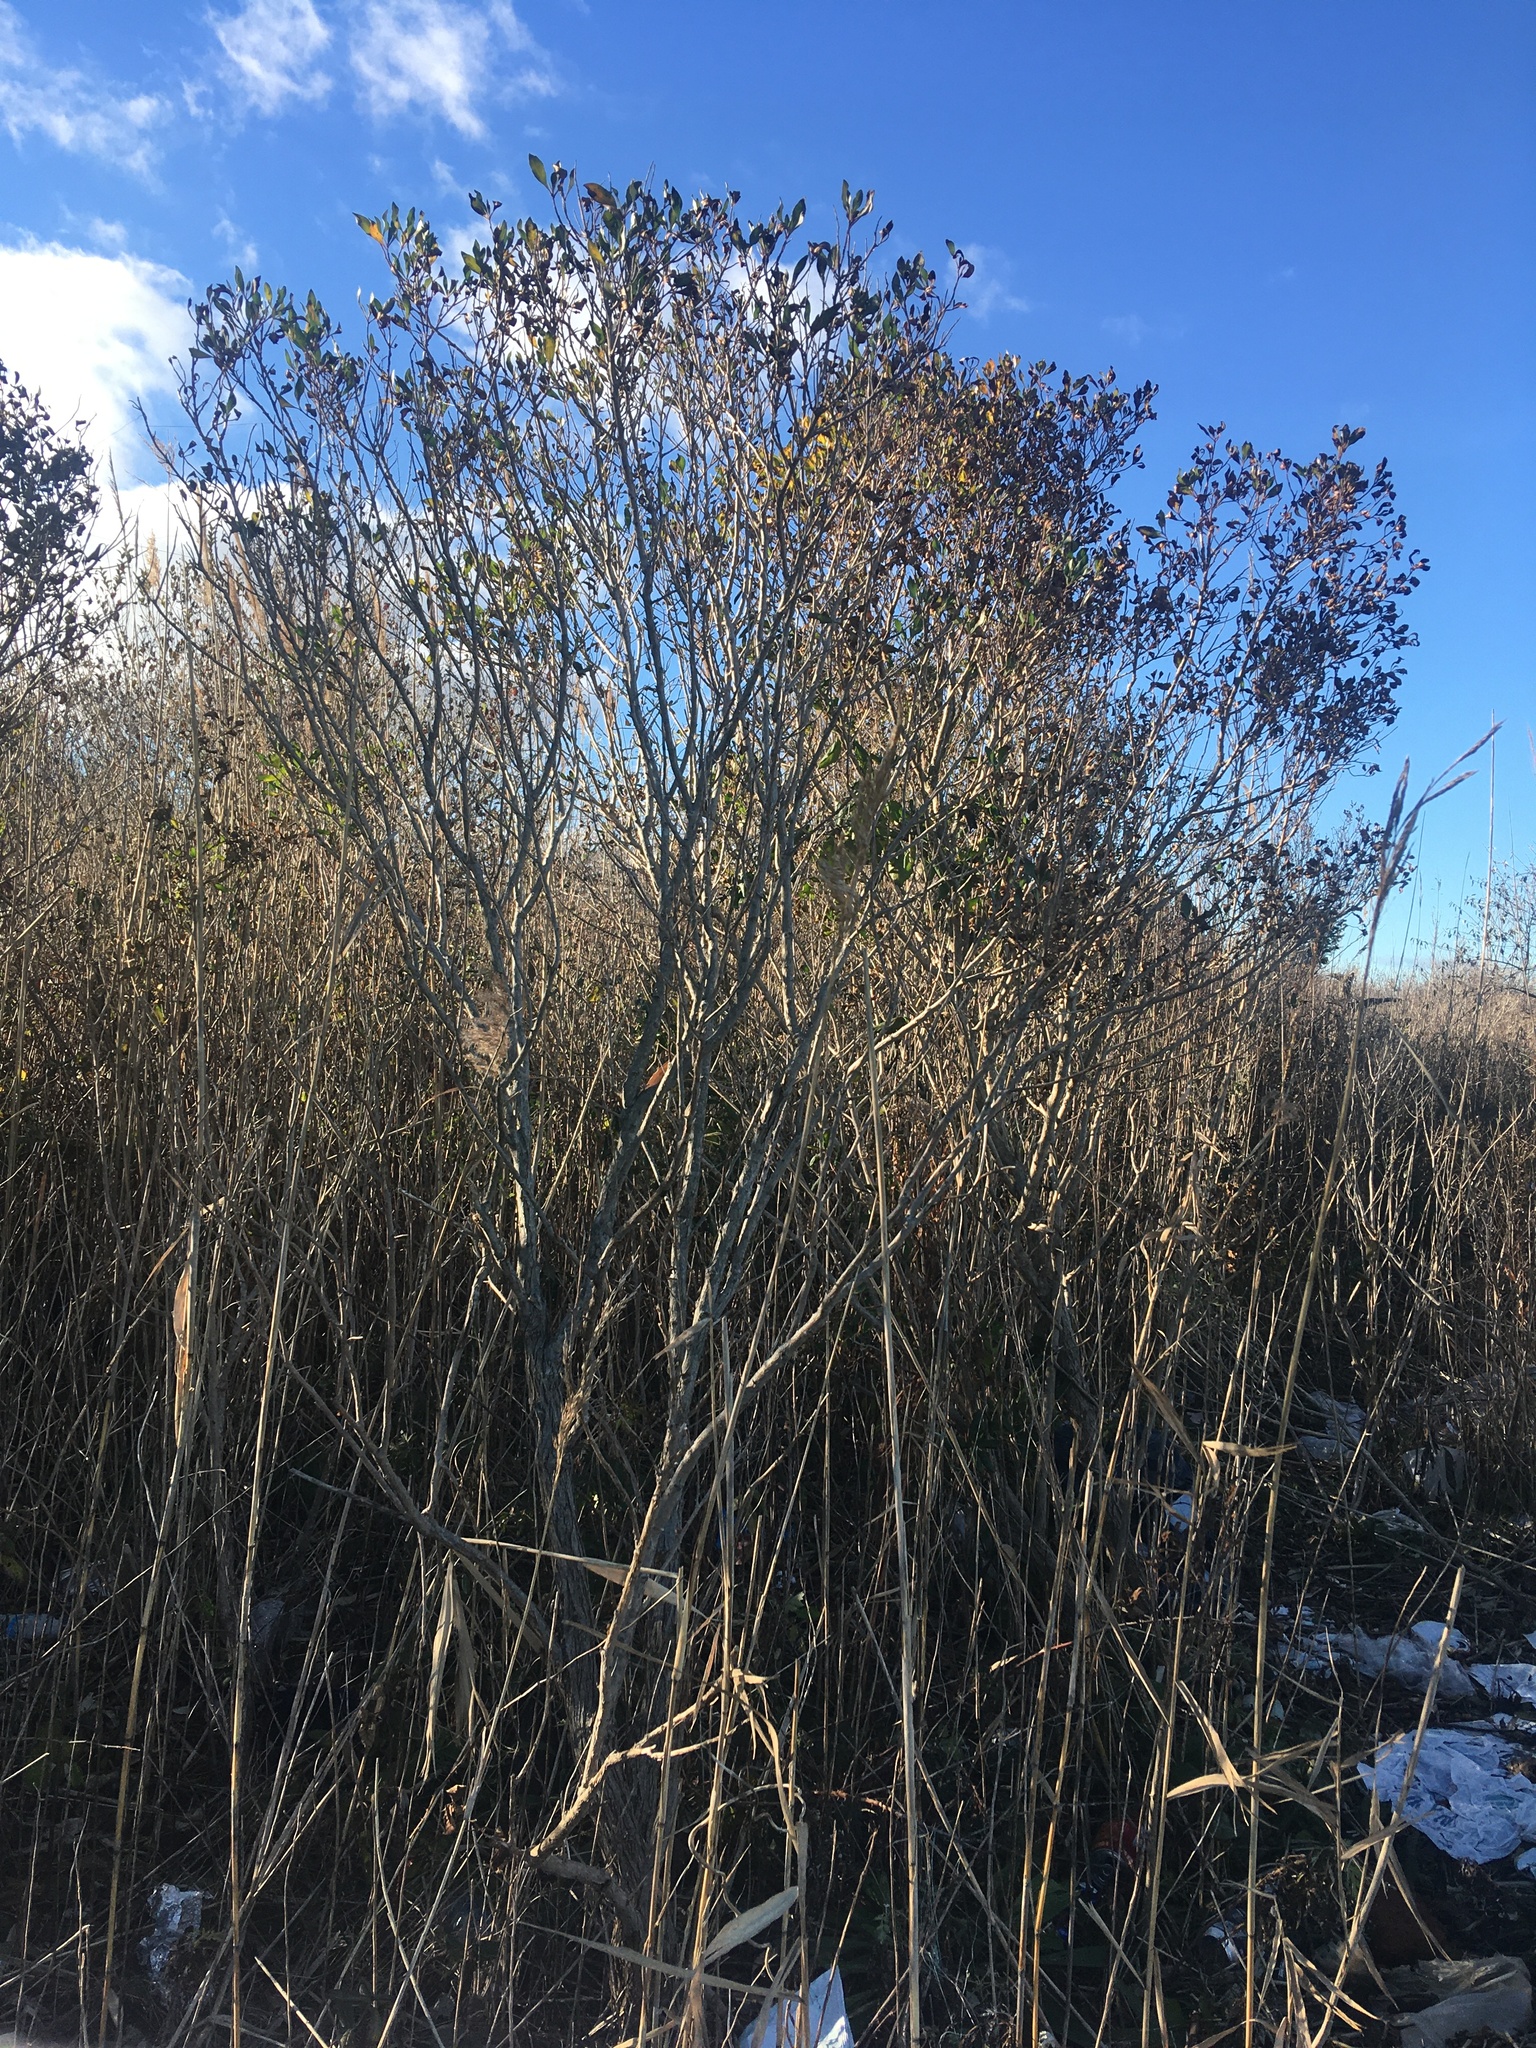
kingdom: Plantae
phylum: Tracheophyta
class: Magnoliopsida
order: Asterales
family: Asteraceae
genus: Baccharis
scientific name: Baccharis halimifolia
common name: Eastern baccharis
